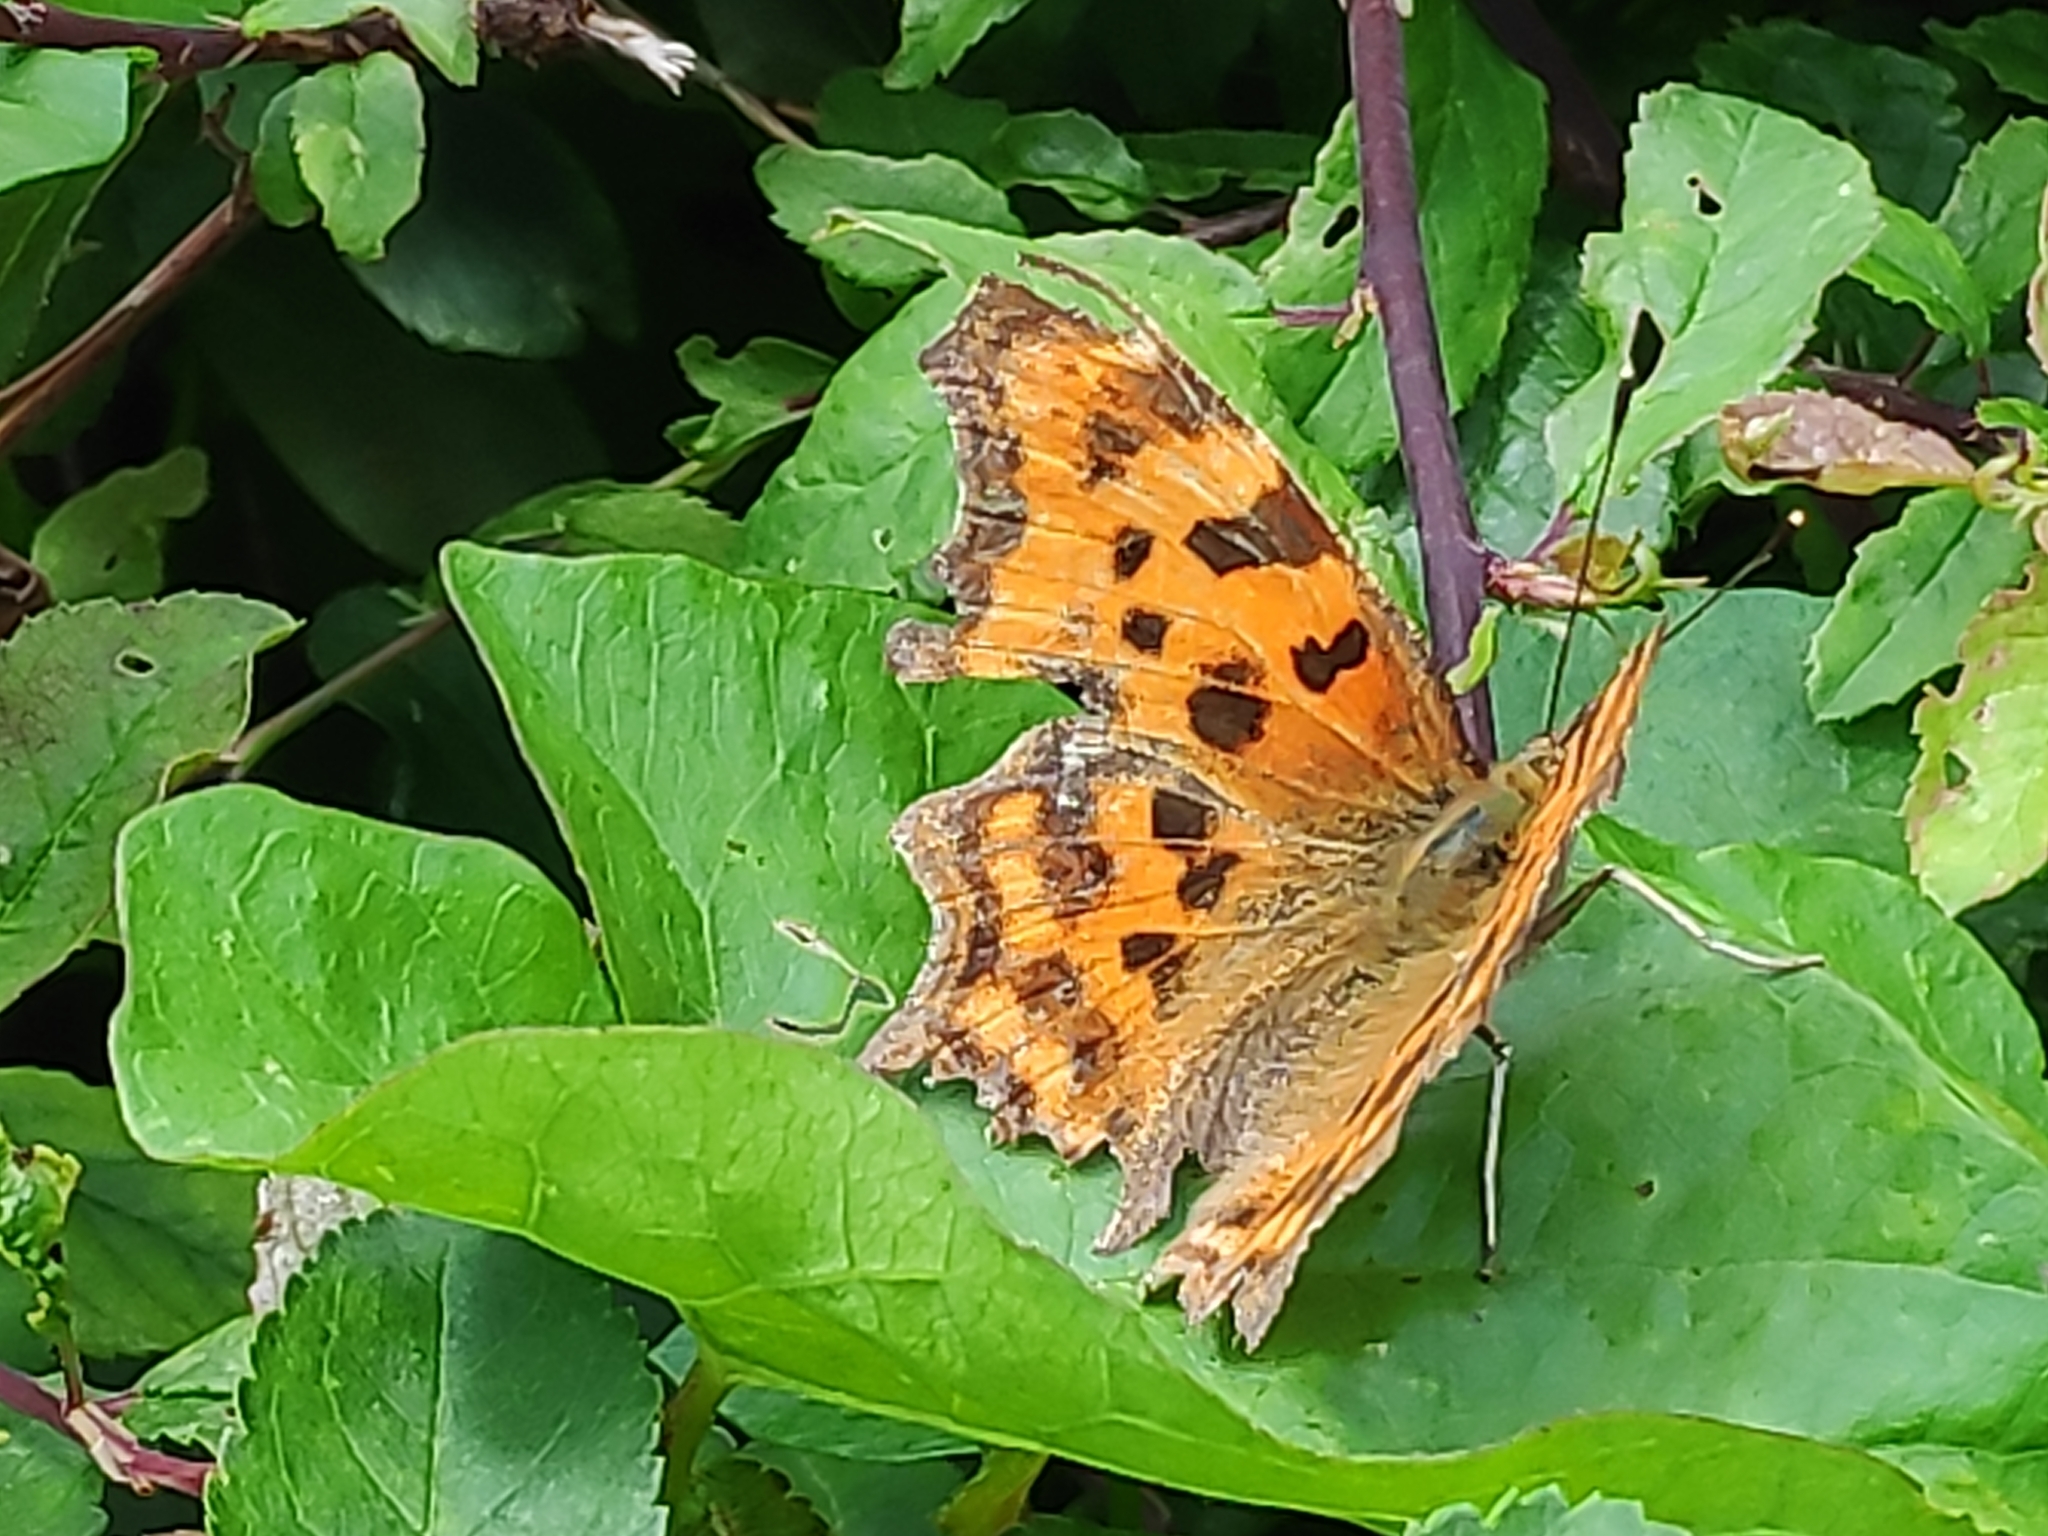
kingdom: Animalia
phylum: Arthropoda
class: Insecta
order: Lepidoptera
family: Nymphalidae
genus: Polygonia
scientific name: Polygonia c-album
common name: Comma
